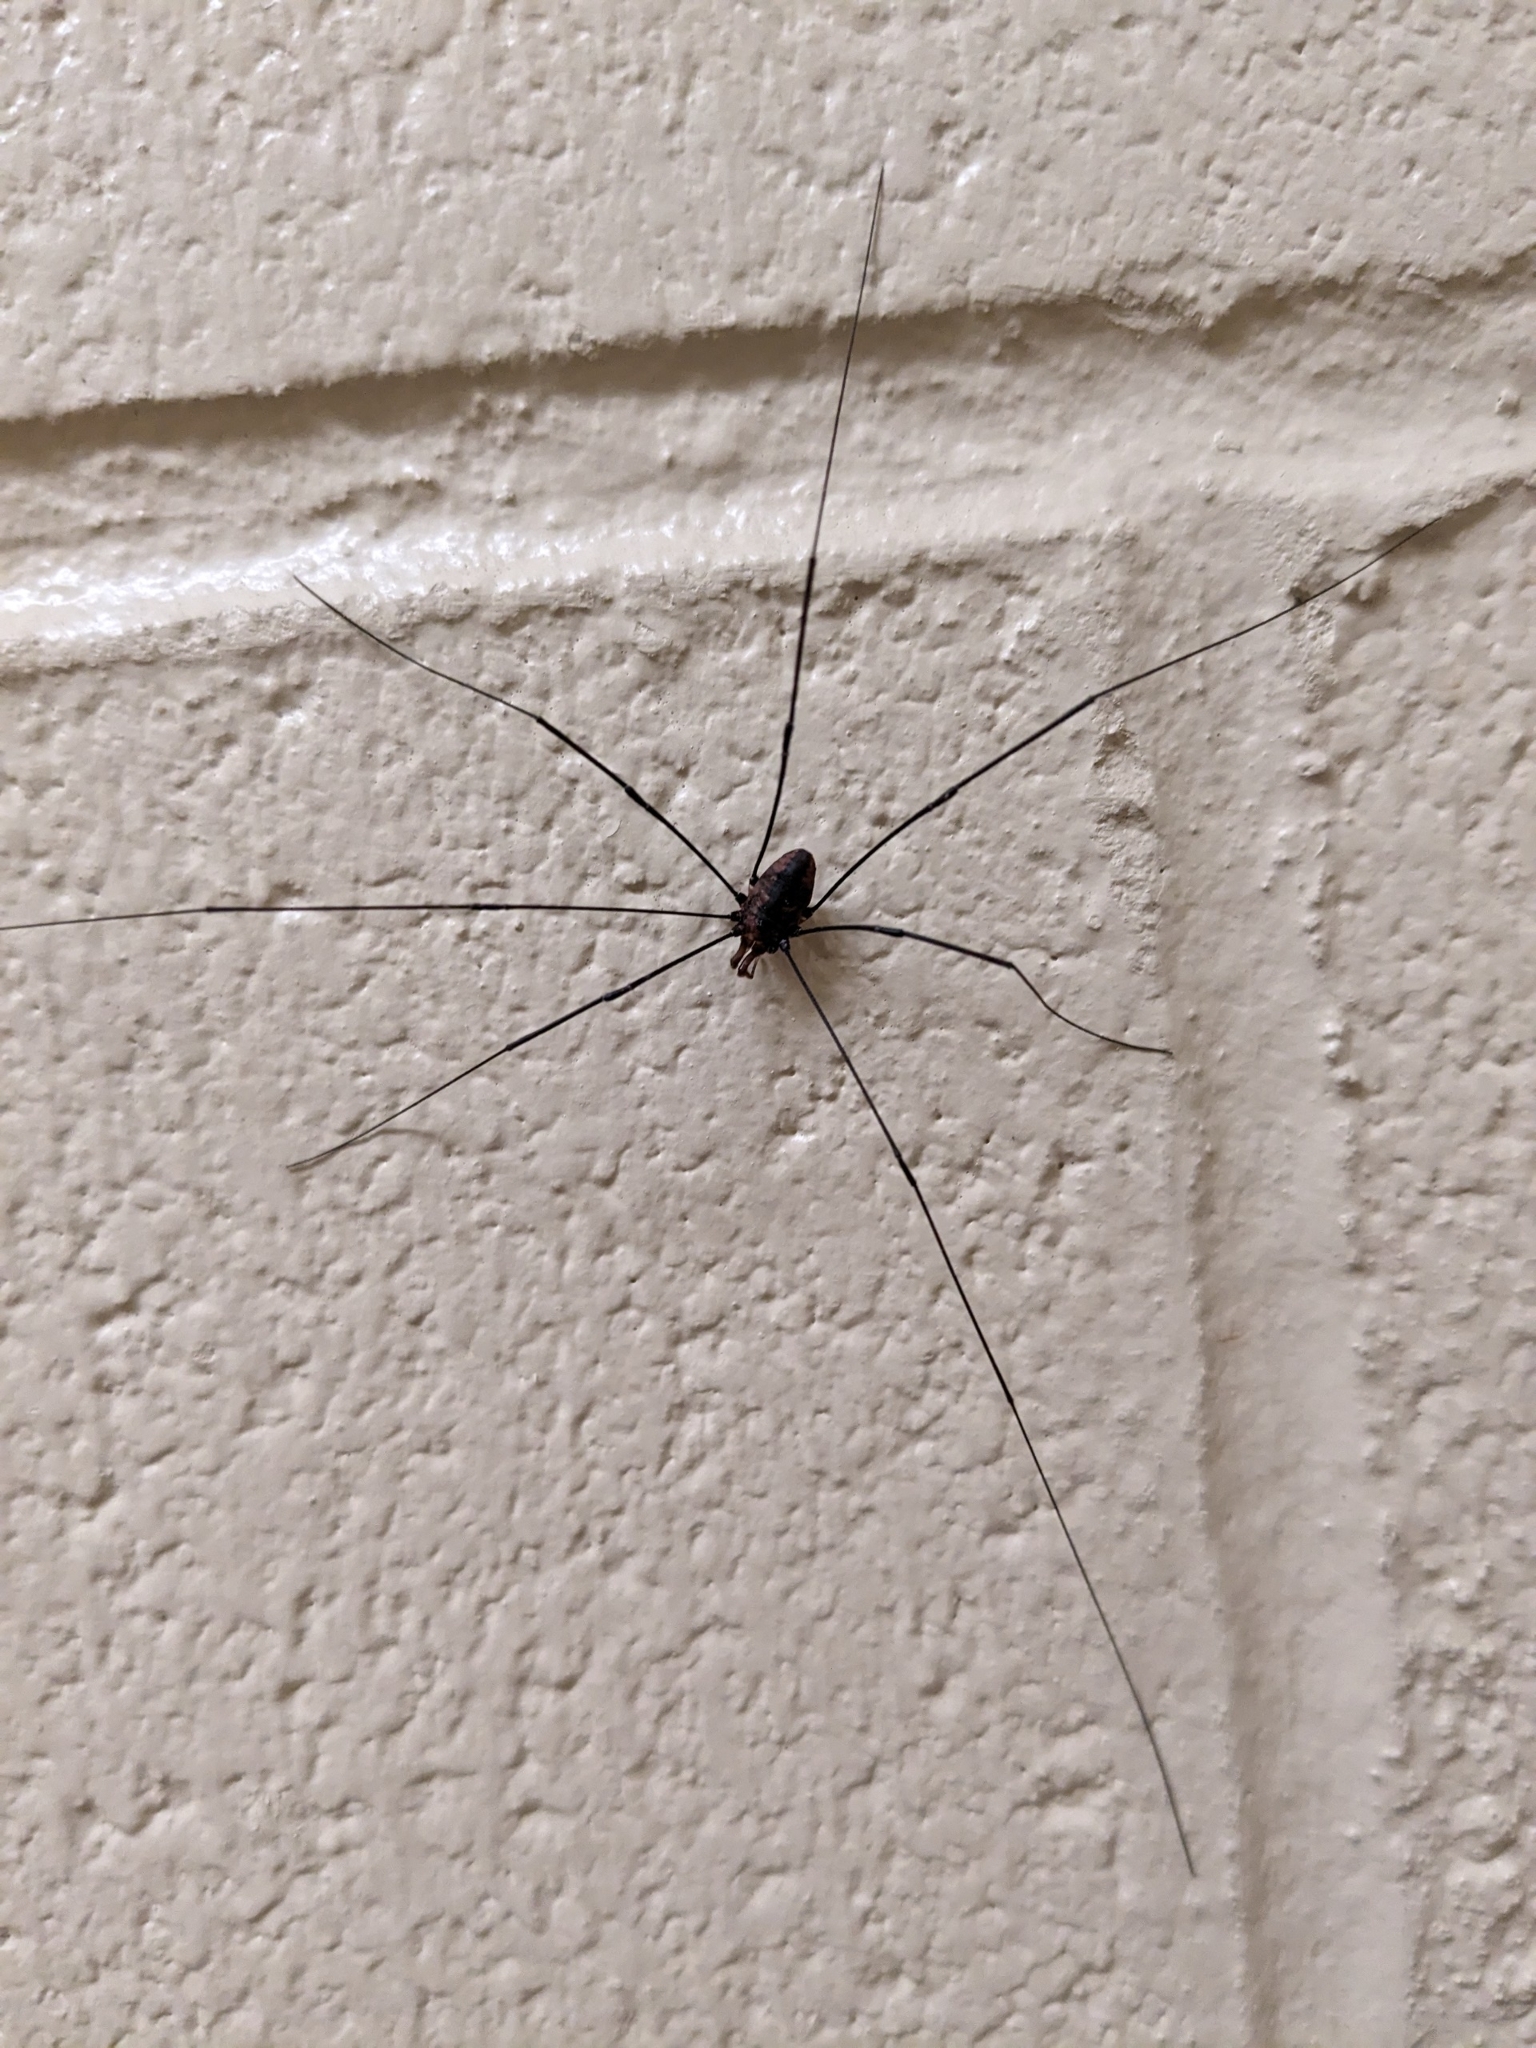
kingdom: Animalia
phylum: Arthropoda
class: Arachnida
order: Opiliones
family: Sclerosomatidae
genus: Leiobunum
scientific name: Leiobunum vittatum
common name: Eastern harvestman
